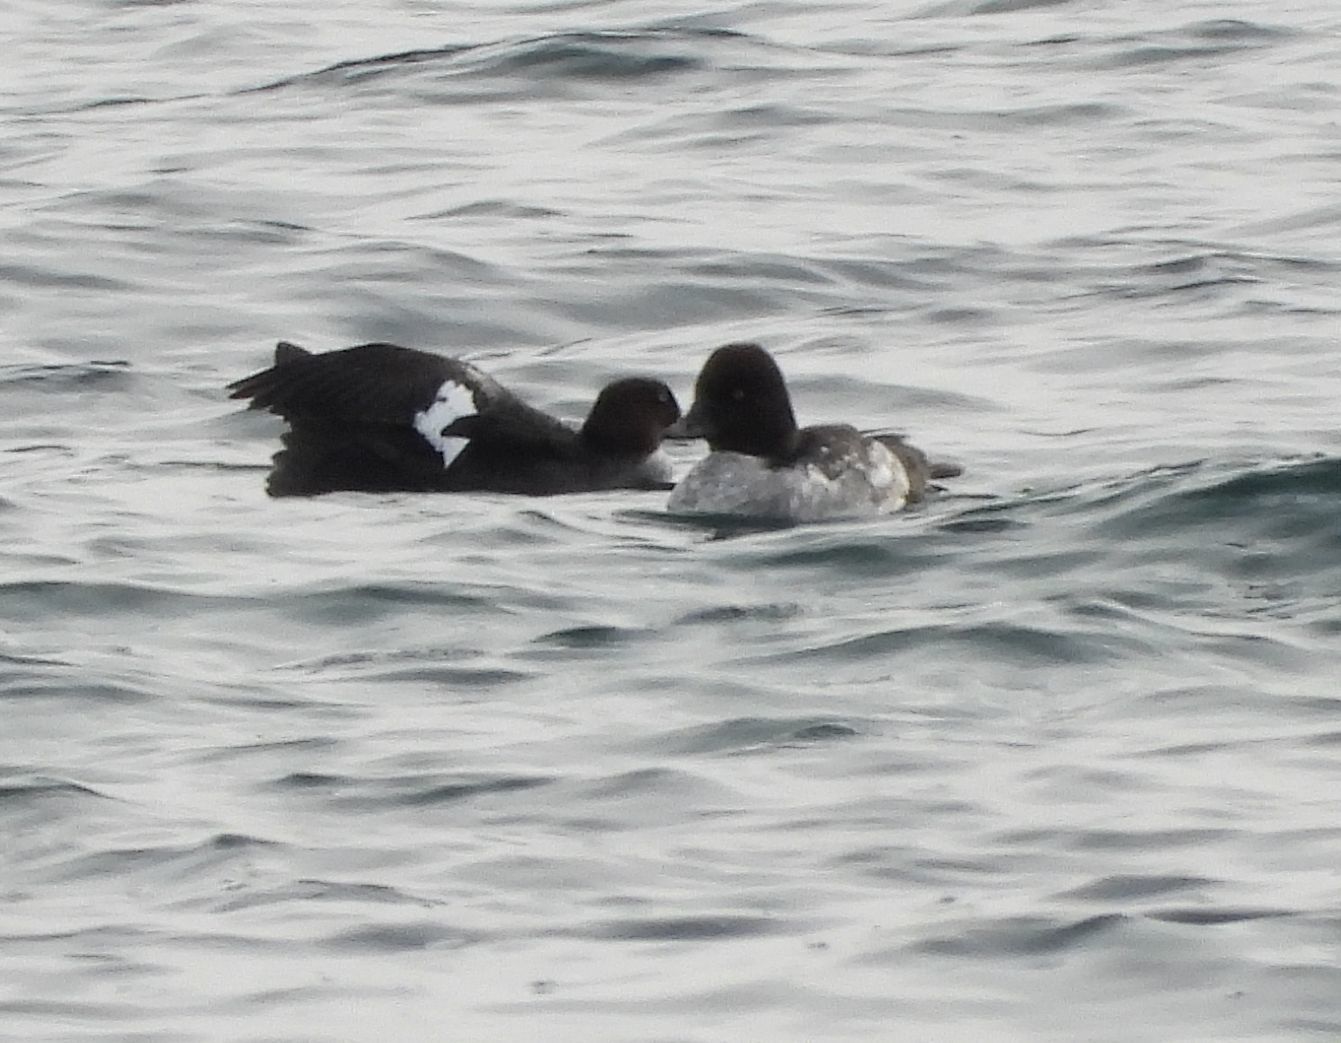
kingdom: Animalia
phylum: Chordata
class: Aves
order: Anseriformes
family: Anatidae
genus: Bucephala
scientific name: Bucephala clangula
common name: Common goldeneye
